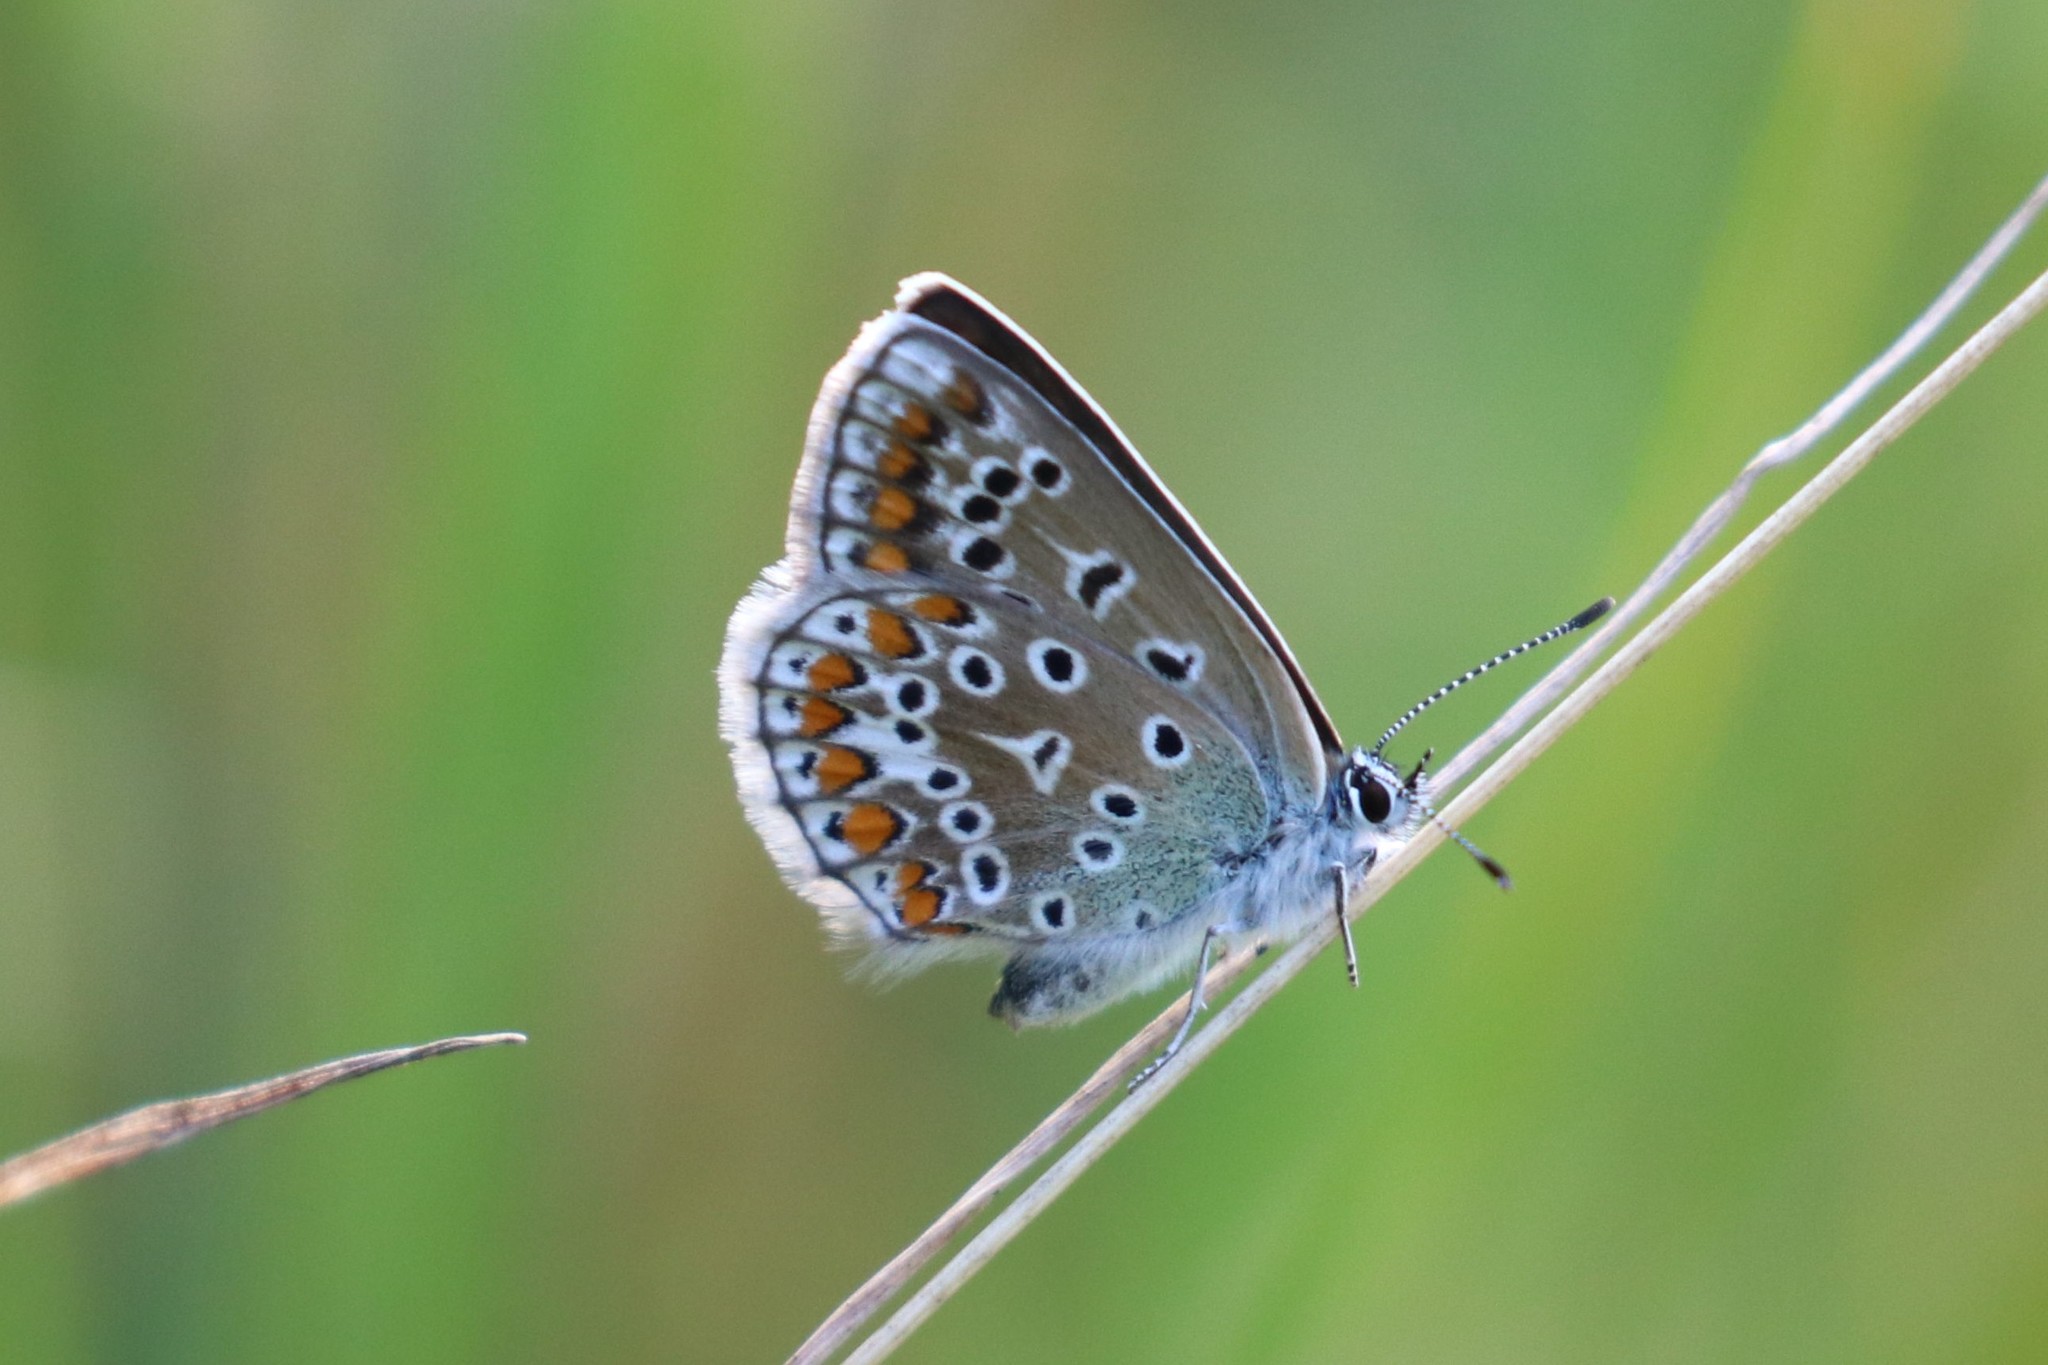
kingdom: Animalia
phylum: Arthropoda
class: Insecta
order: Lepidoptera
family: Lycaenidae
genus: Polyommatus
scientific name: Polyommatus icarus
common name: Common blue
